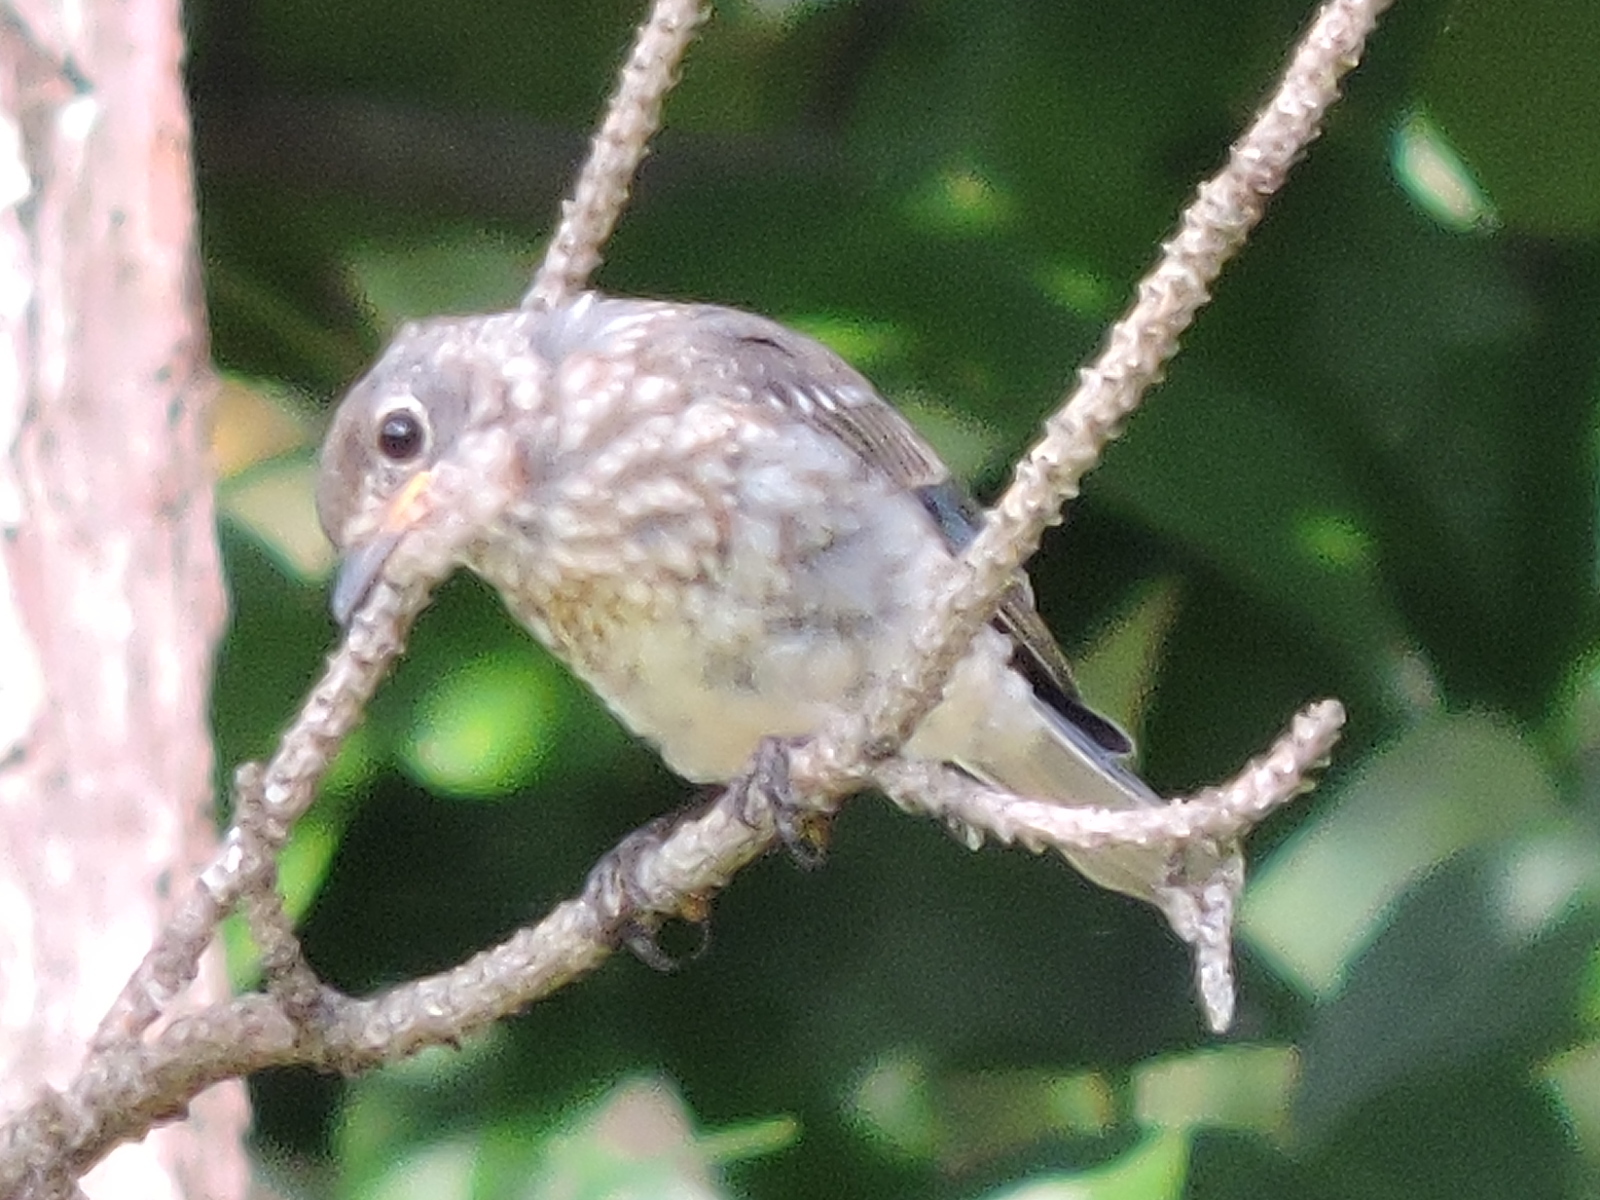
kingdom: Animalia
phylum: Chordata
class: Aves
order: Passeriformes
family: Turdidae
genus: Sialia
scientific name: Sialia sialis
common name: Eastern bluebird
